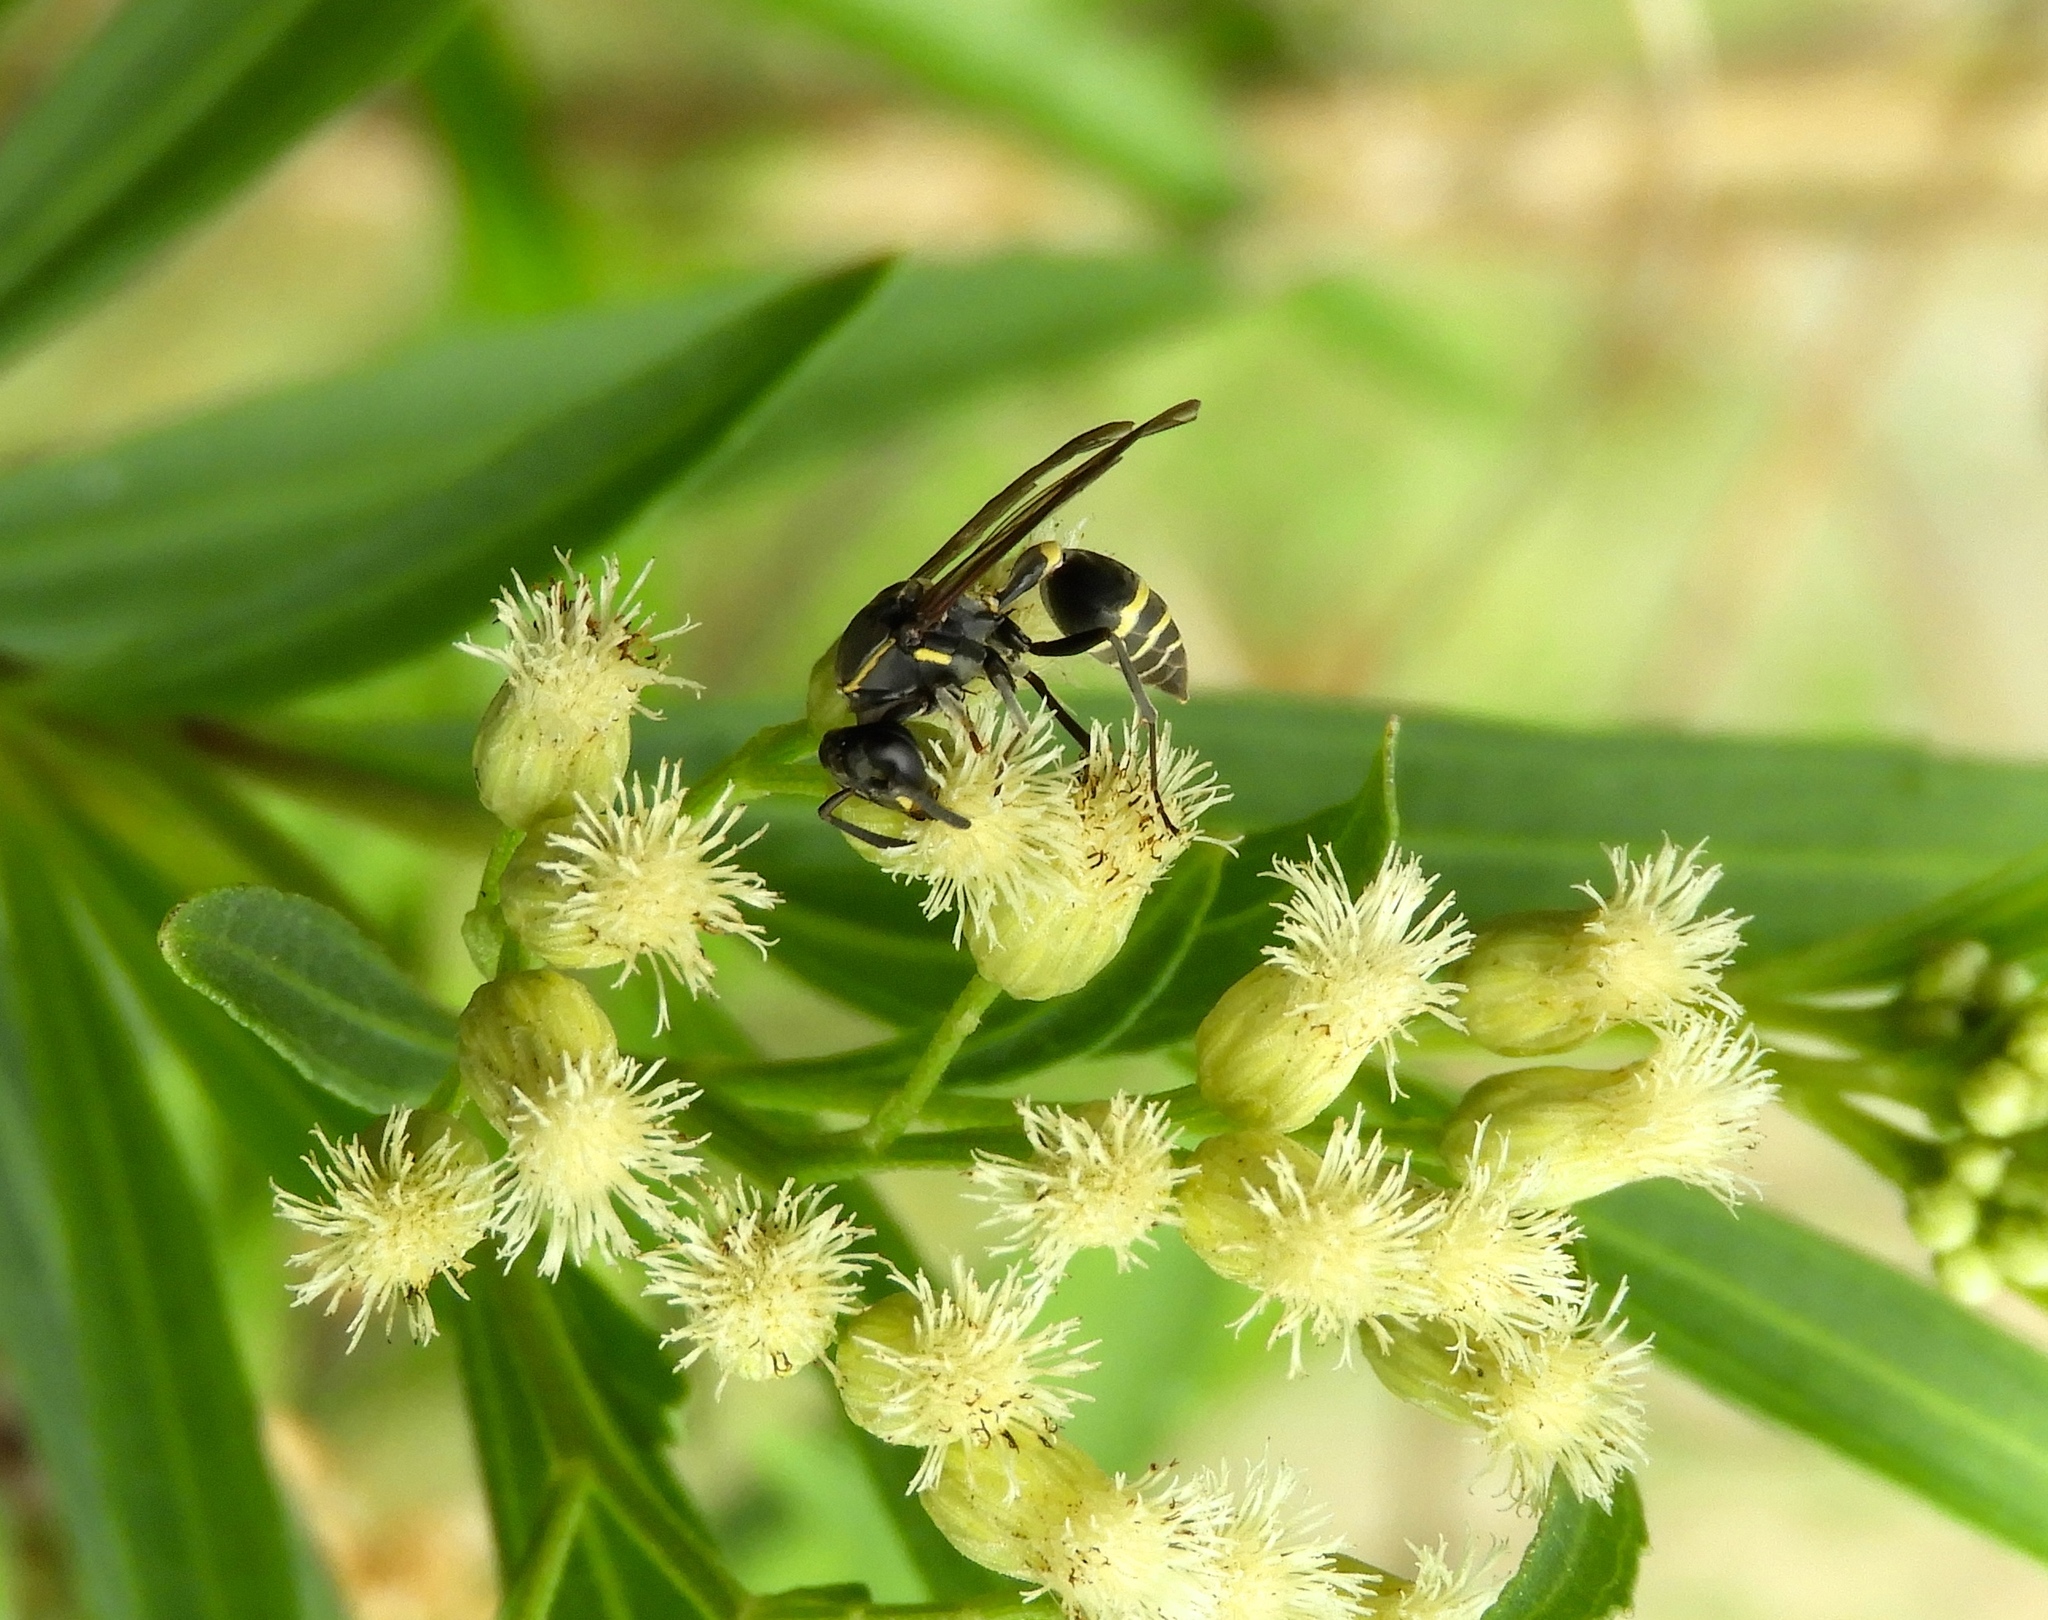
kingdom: Animalia
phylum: Arthropoda
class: Insecta
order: Hymenoptera
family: Vespidae
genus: Myrapetra
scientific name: Myrapetra
